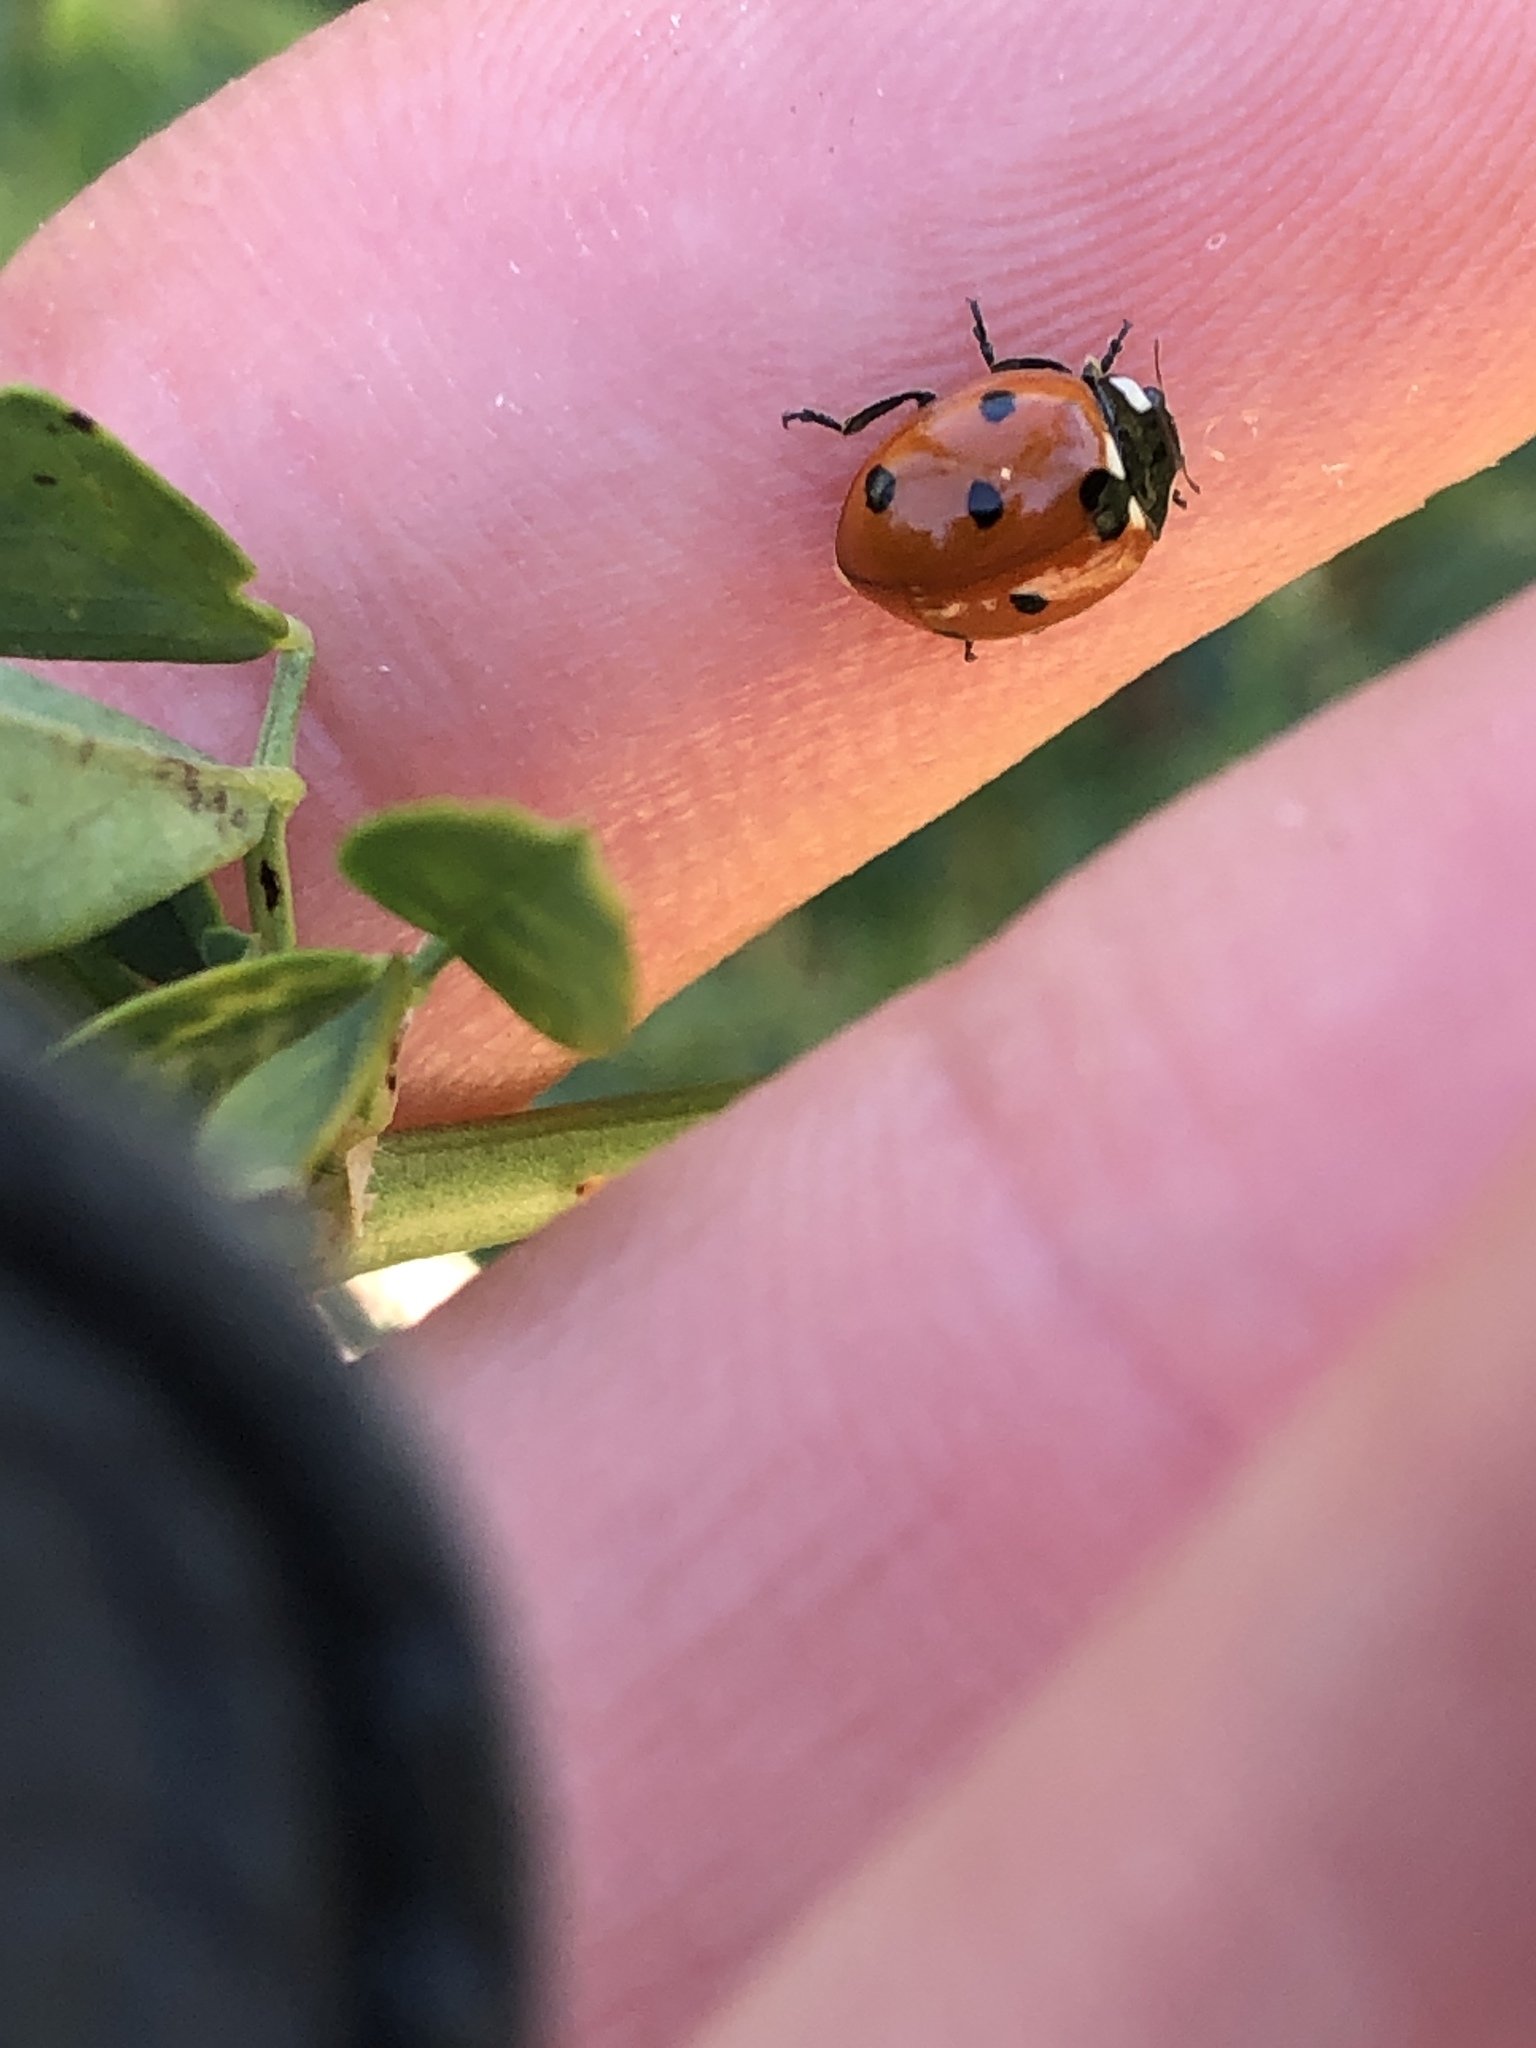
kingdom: Animalia
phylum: Arthropoda
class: Insecta
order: Coleoptera
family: Coccinellidae
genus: Coccinella
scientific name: Coccinella septempunctata
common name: Sevenspotted lady beetle
